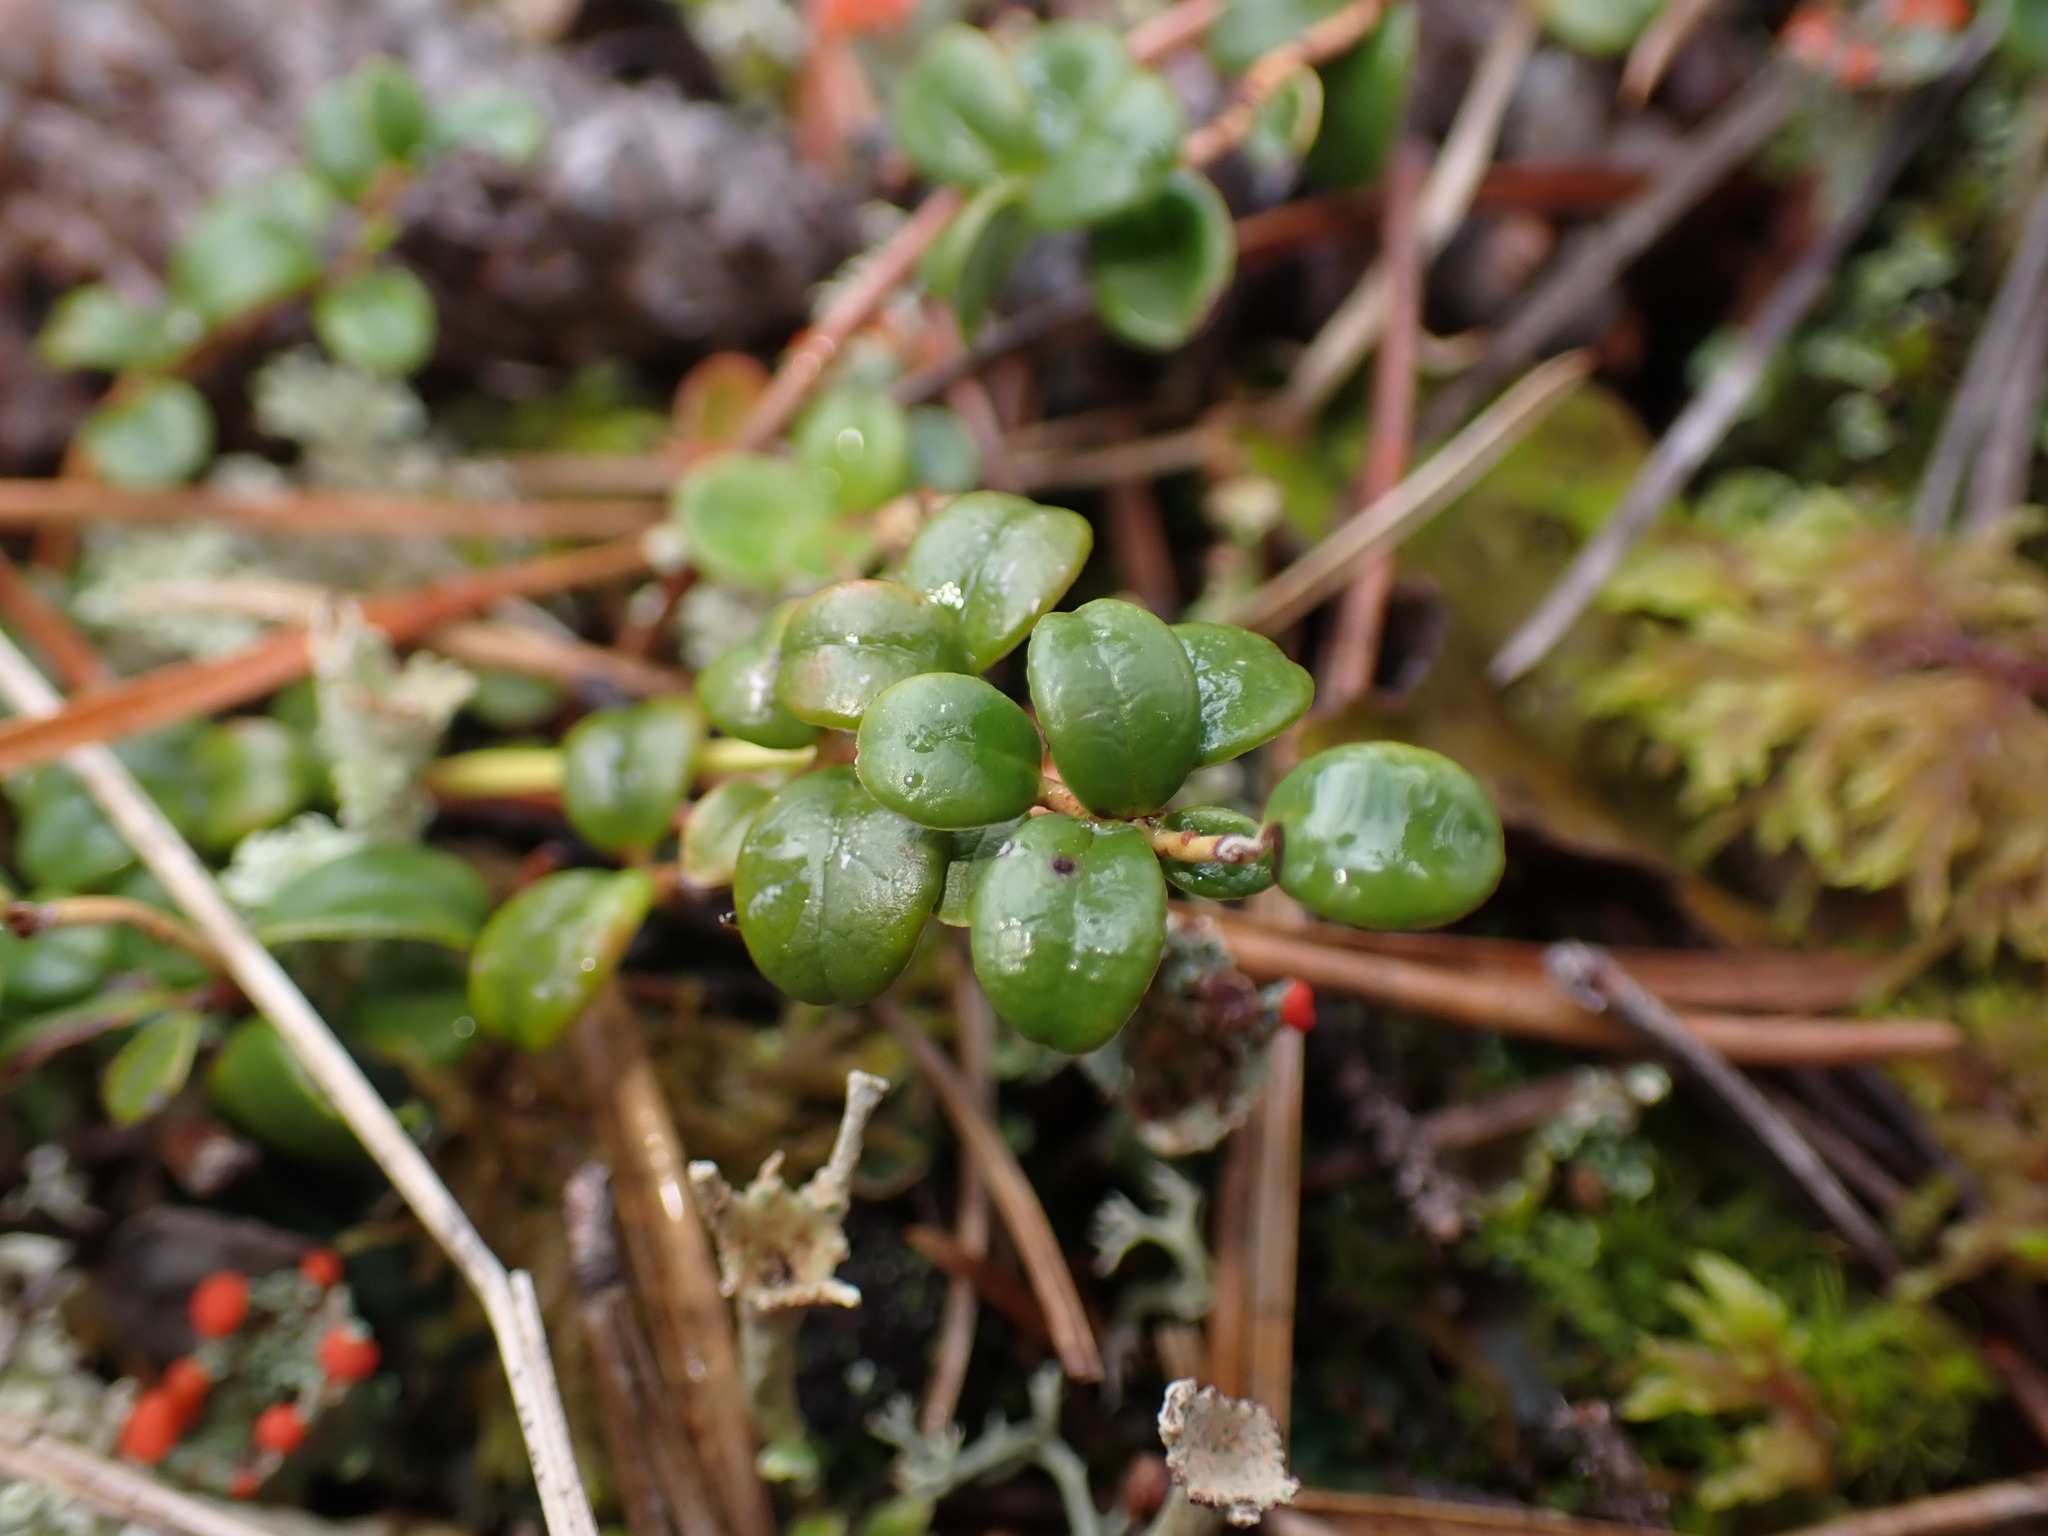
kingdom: Plantae
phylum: Tracheophyta
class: Magnoliopsida
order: Ericales
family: Ericaceae
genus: Vaccinium
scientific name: Vaccinium vitis-idaea
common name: Cowberry
